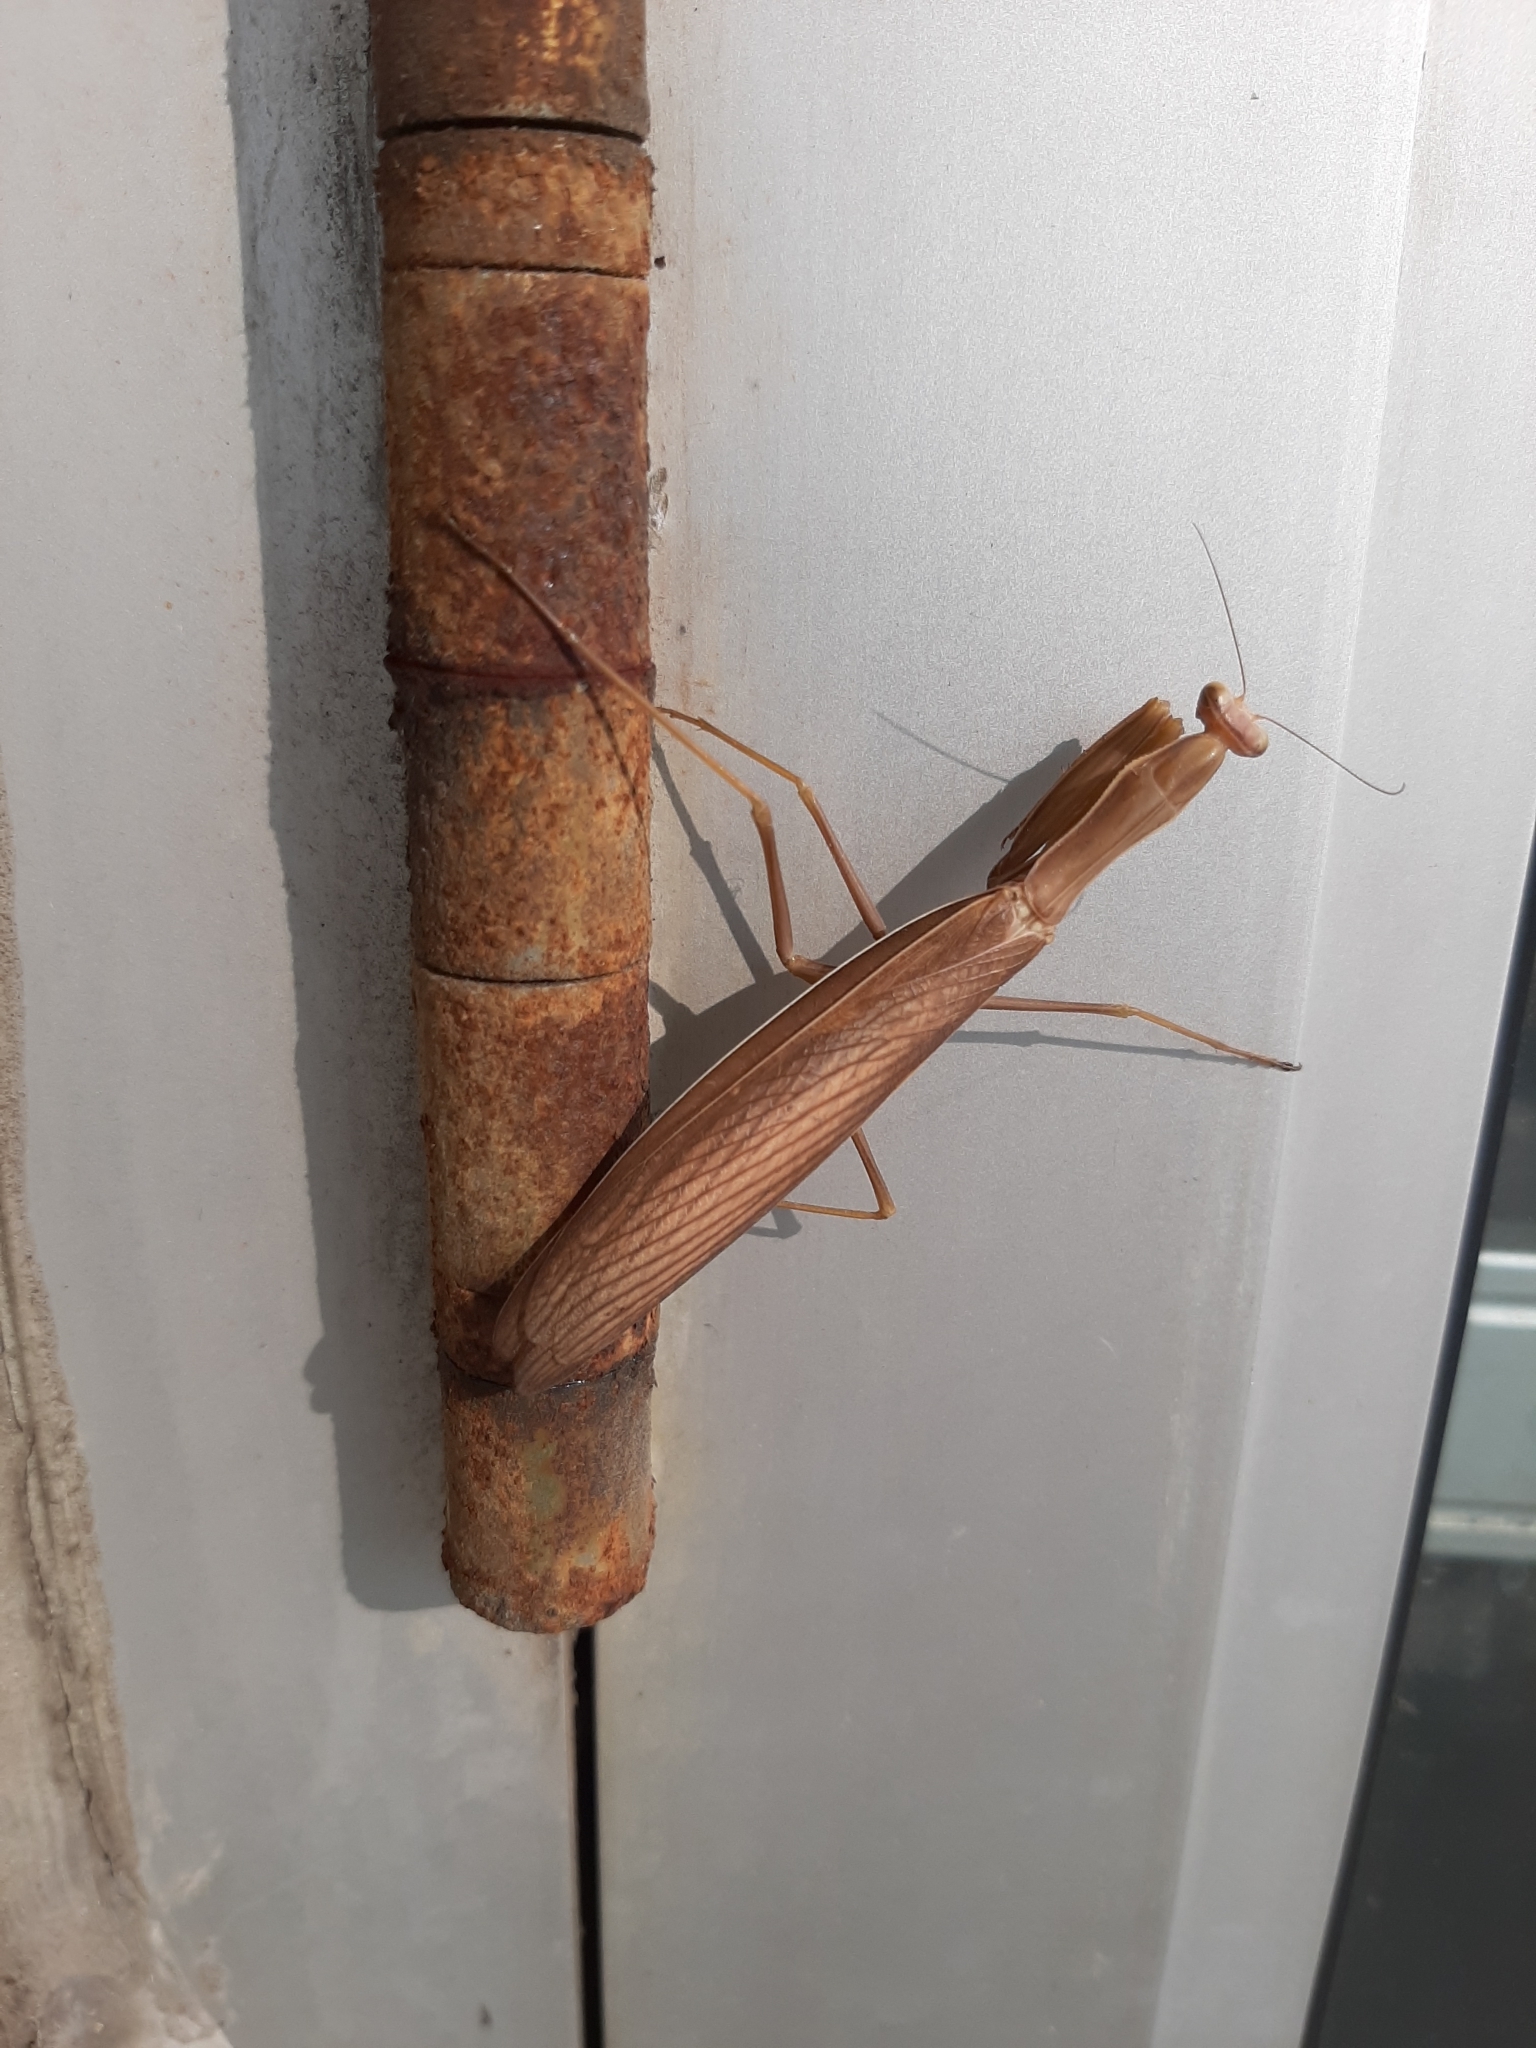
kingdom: Animalia
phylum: Arthropoda
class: Insecta
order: Mantodea
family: Mantidae
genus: Mantis
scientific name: Mantis religiosa
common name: Praying mantis
